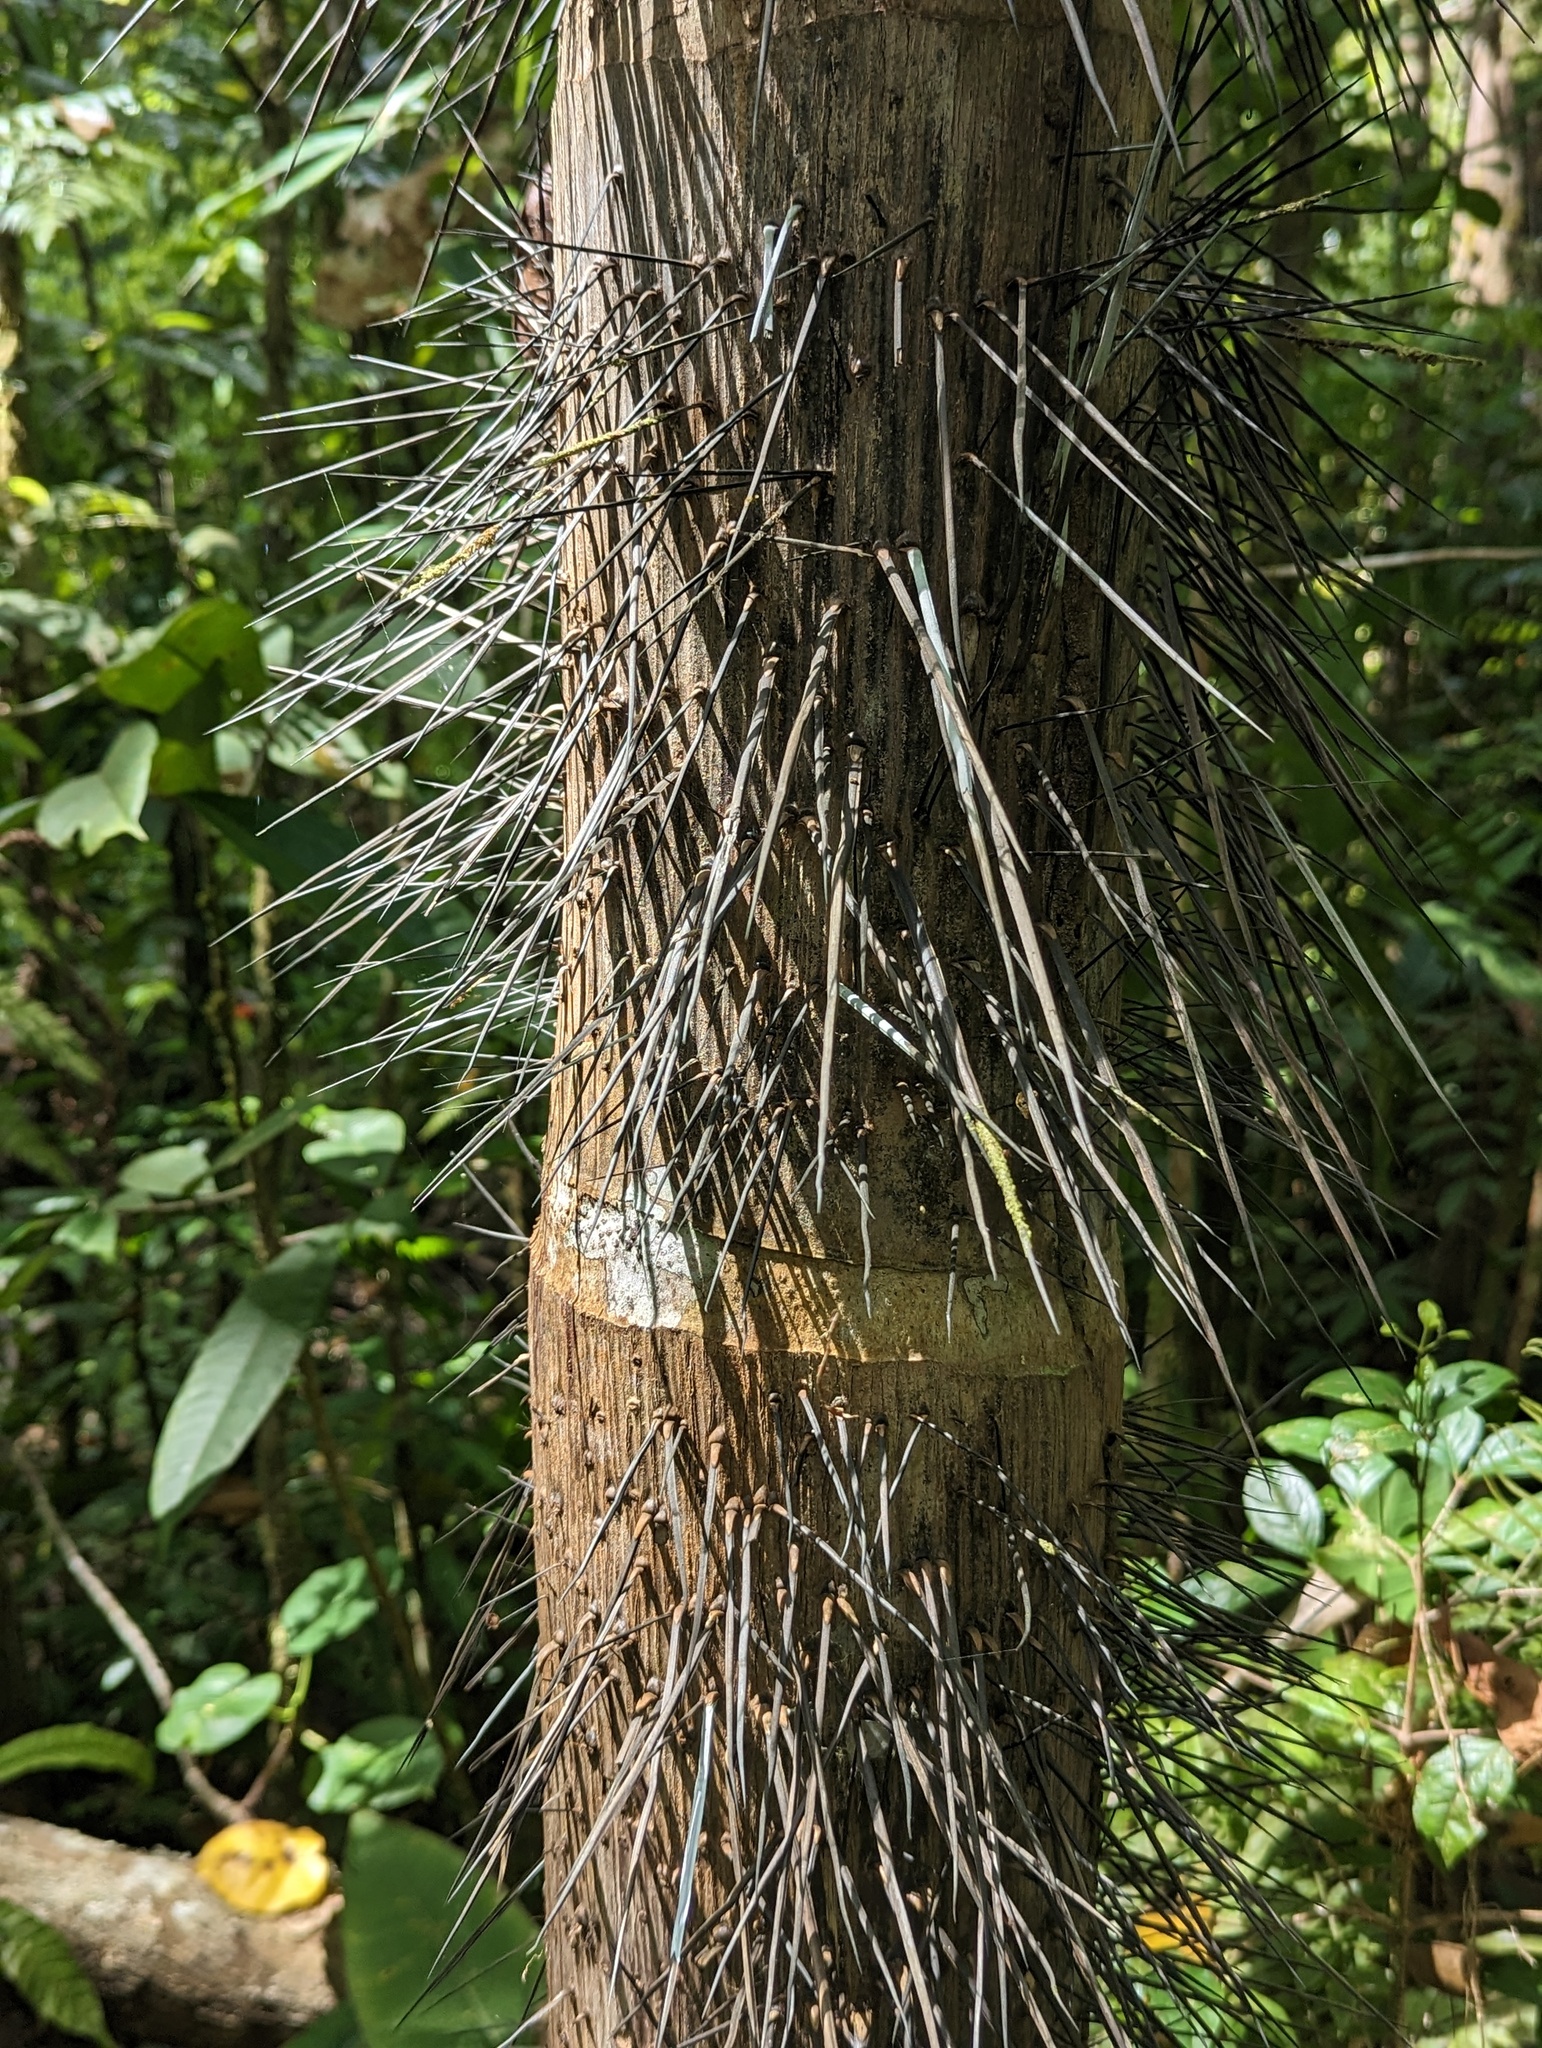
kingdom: Plantae
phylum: Tracheophyta
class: Liliopsida
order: Arecales
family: Arecaceae
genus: Astrocaryum
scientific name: Astrocaryum standleyanum
